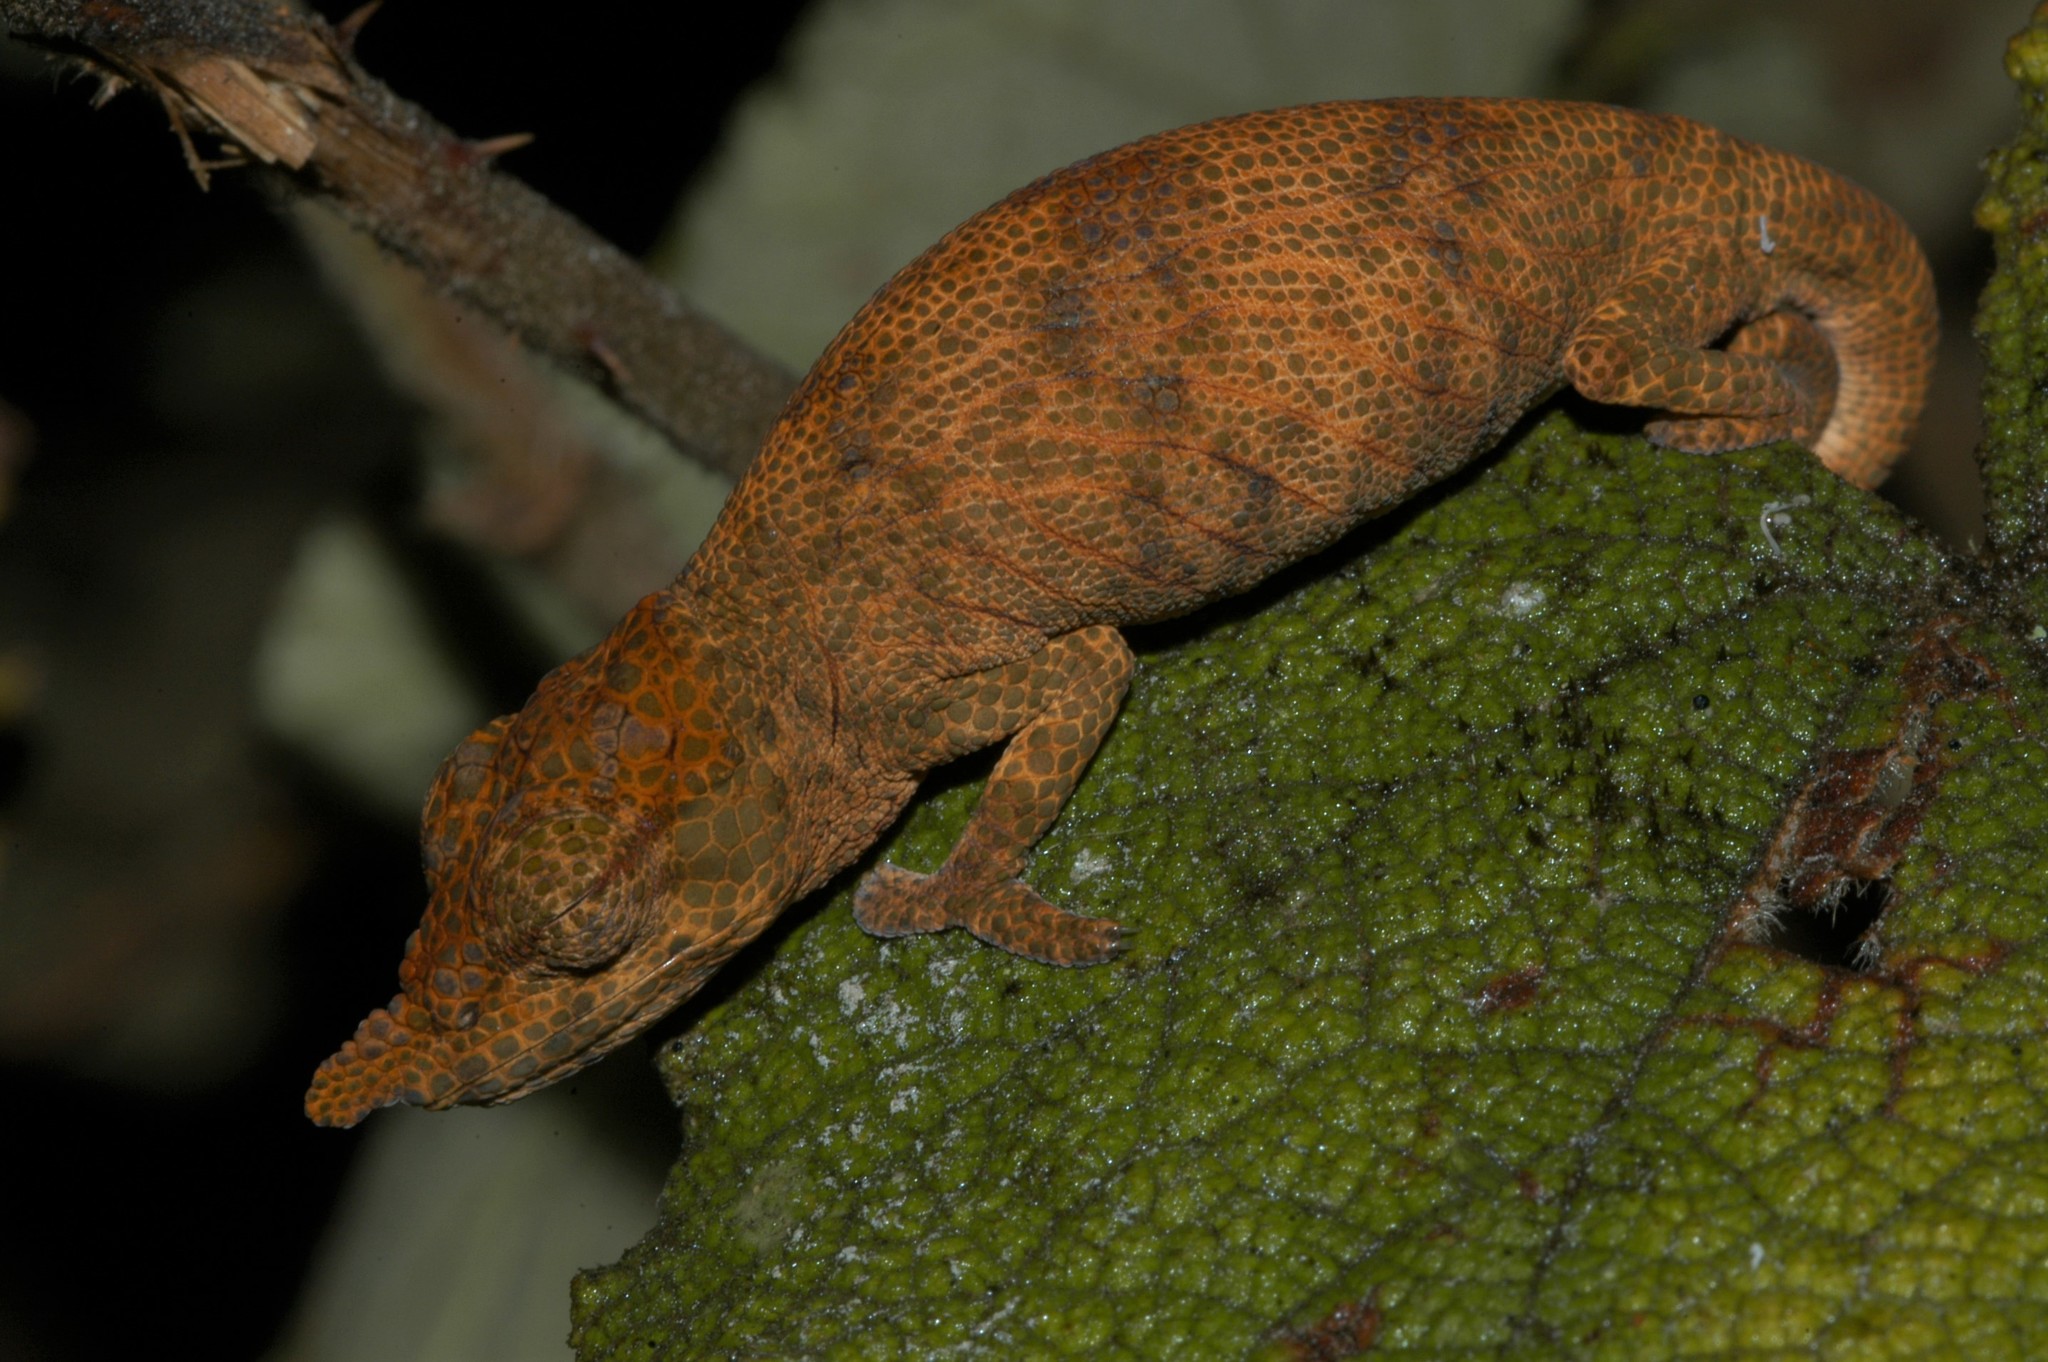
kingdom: Animalia
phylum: Chordata
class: Squamata
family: Chamaeleonidae
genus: Calumma
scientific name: Calumma emelinae
